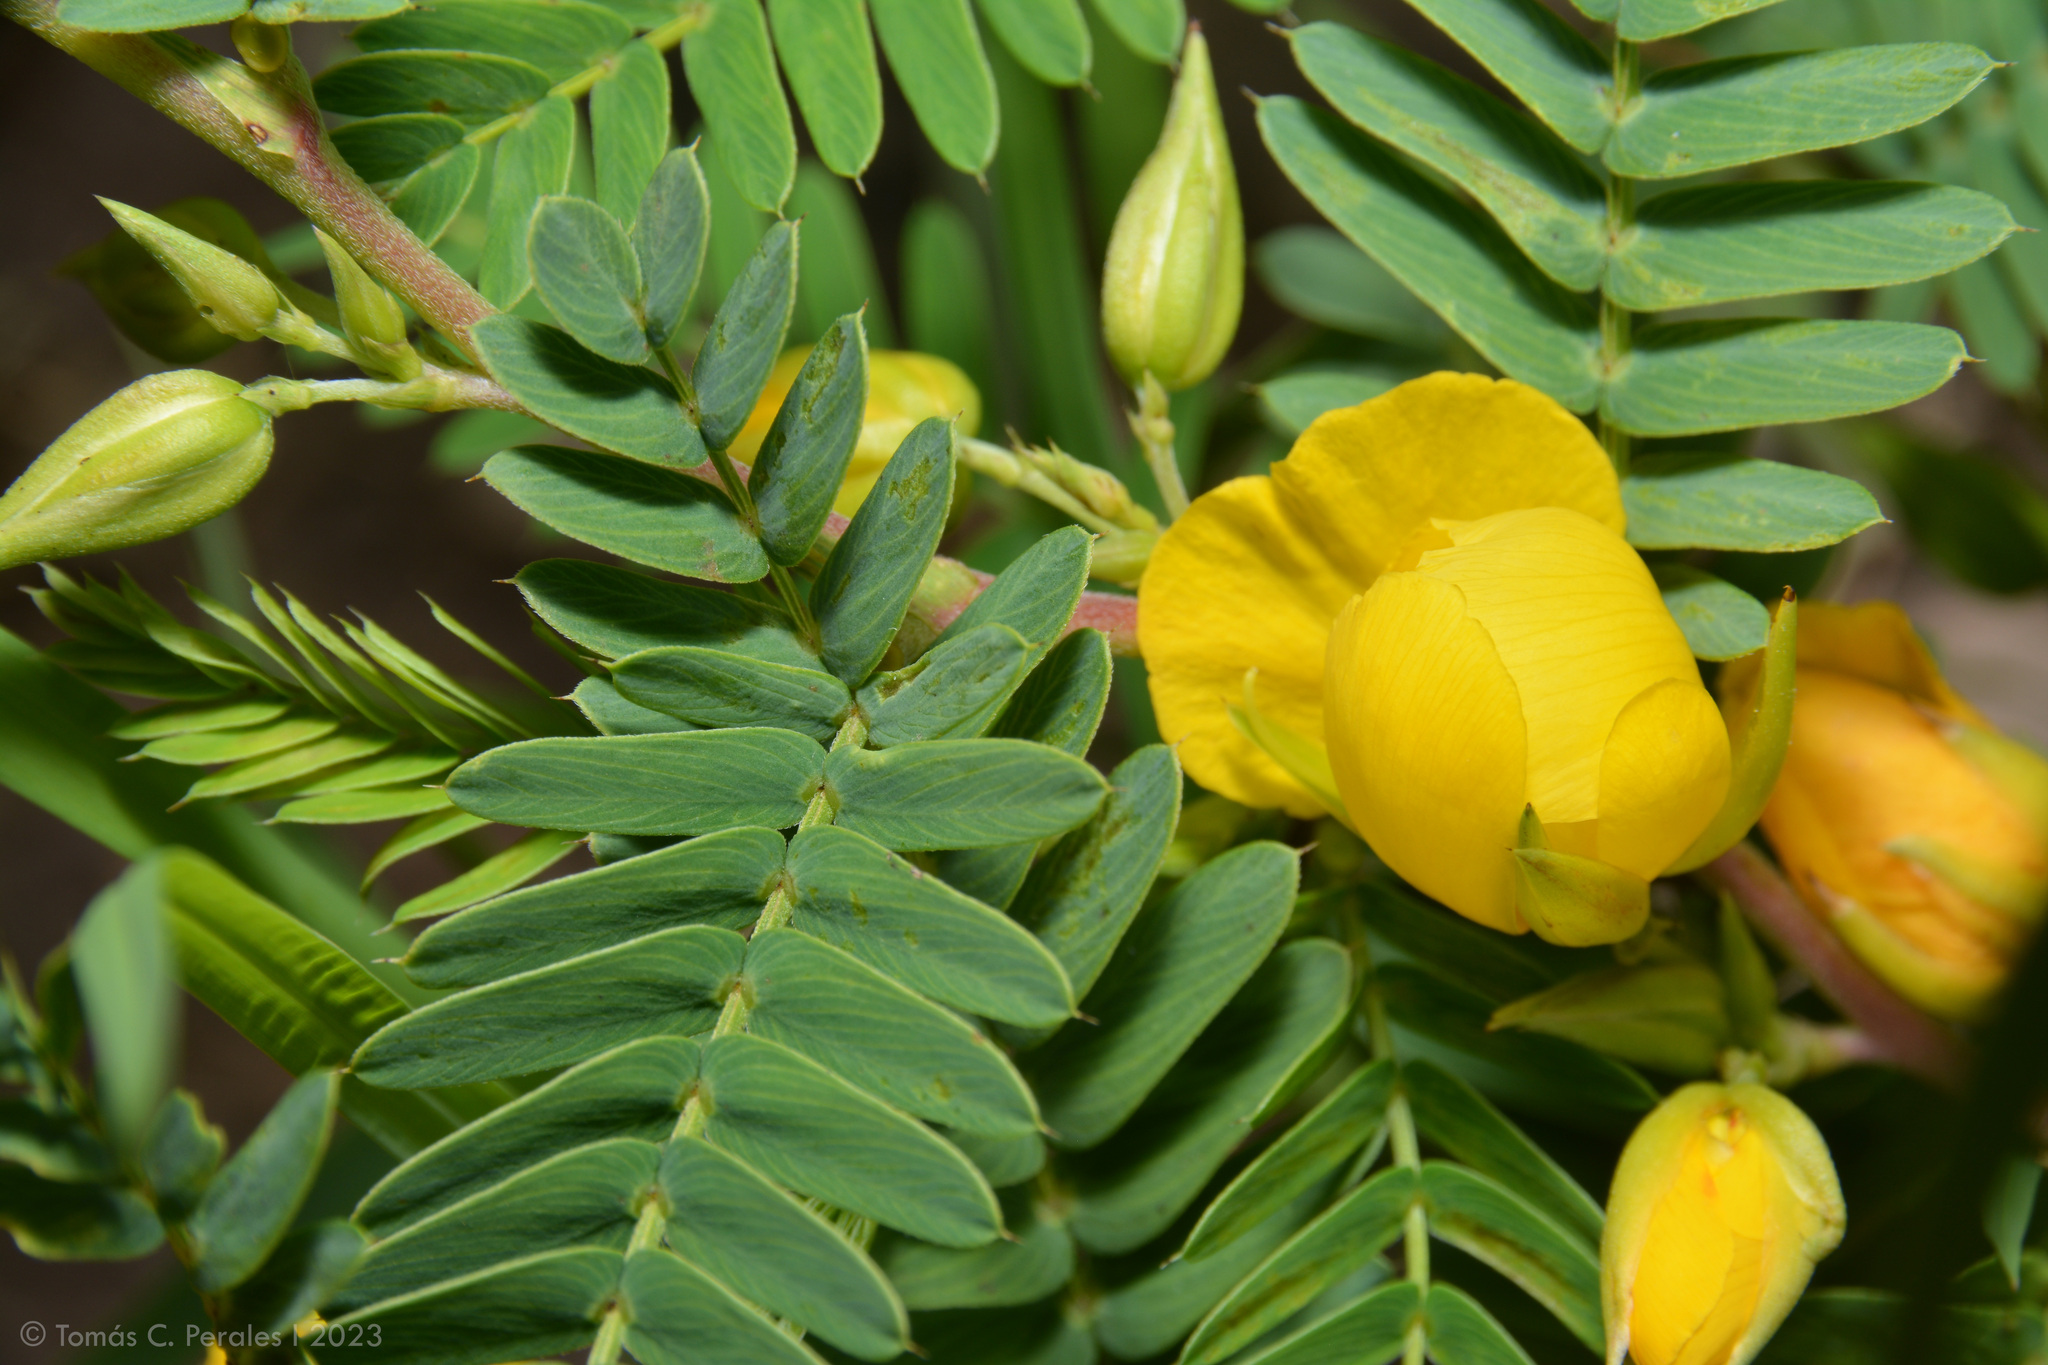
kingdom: Plantae
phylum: Tracheophyta
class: Magnoliopsida
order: Fabales
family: Fabaceae
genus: Chamaecrista
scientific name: Chamaecrista nictitans
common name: Sensitive cassia
